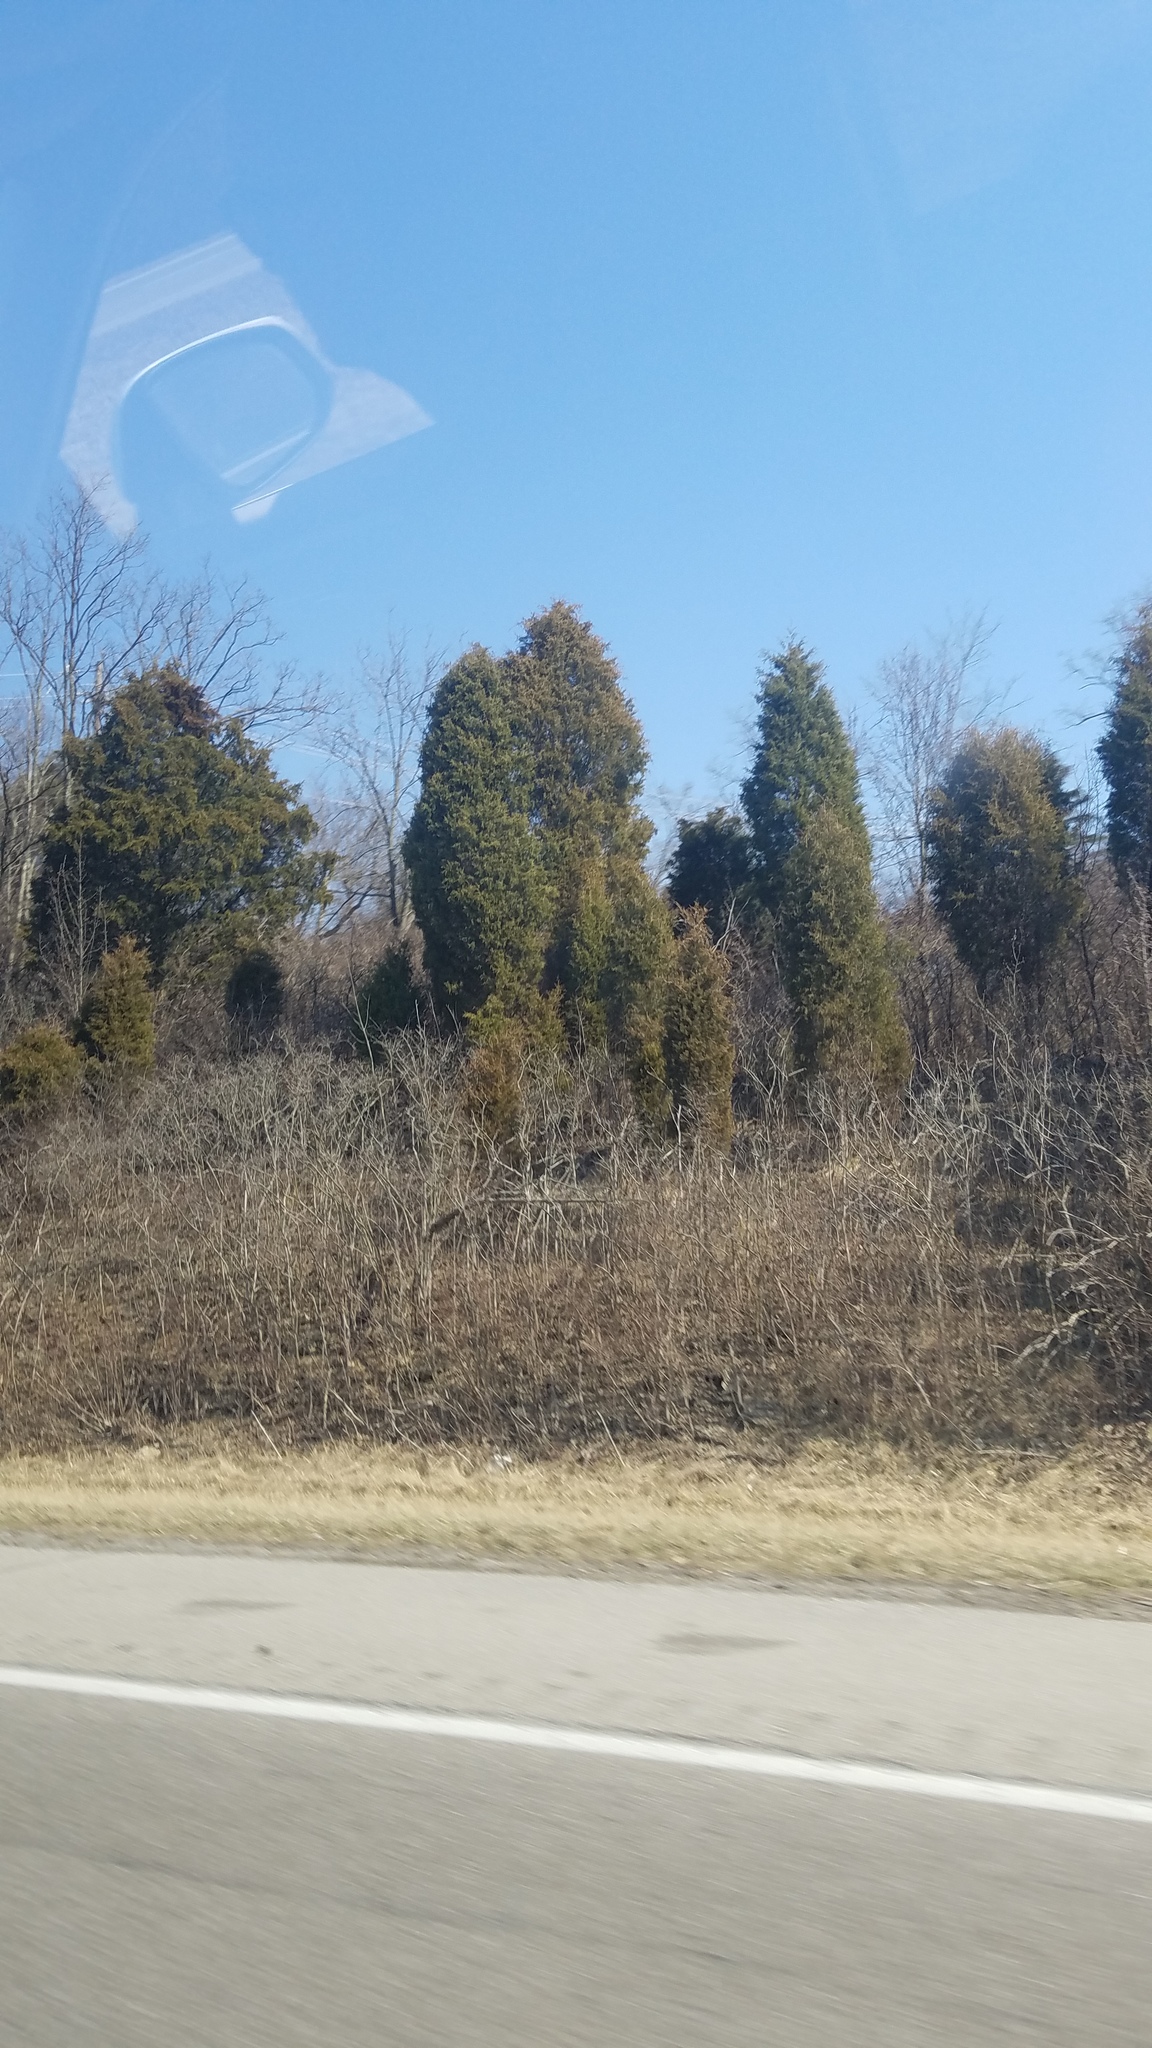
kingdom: Plantae
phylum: Tracheophyta
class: Pinopsida
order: Pinales
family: Cupressaceae
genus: Juniperus
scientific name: Juniperus virginiana
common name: Red juniper
